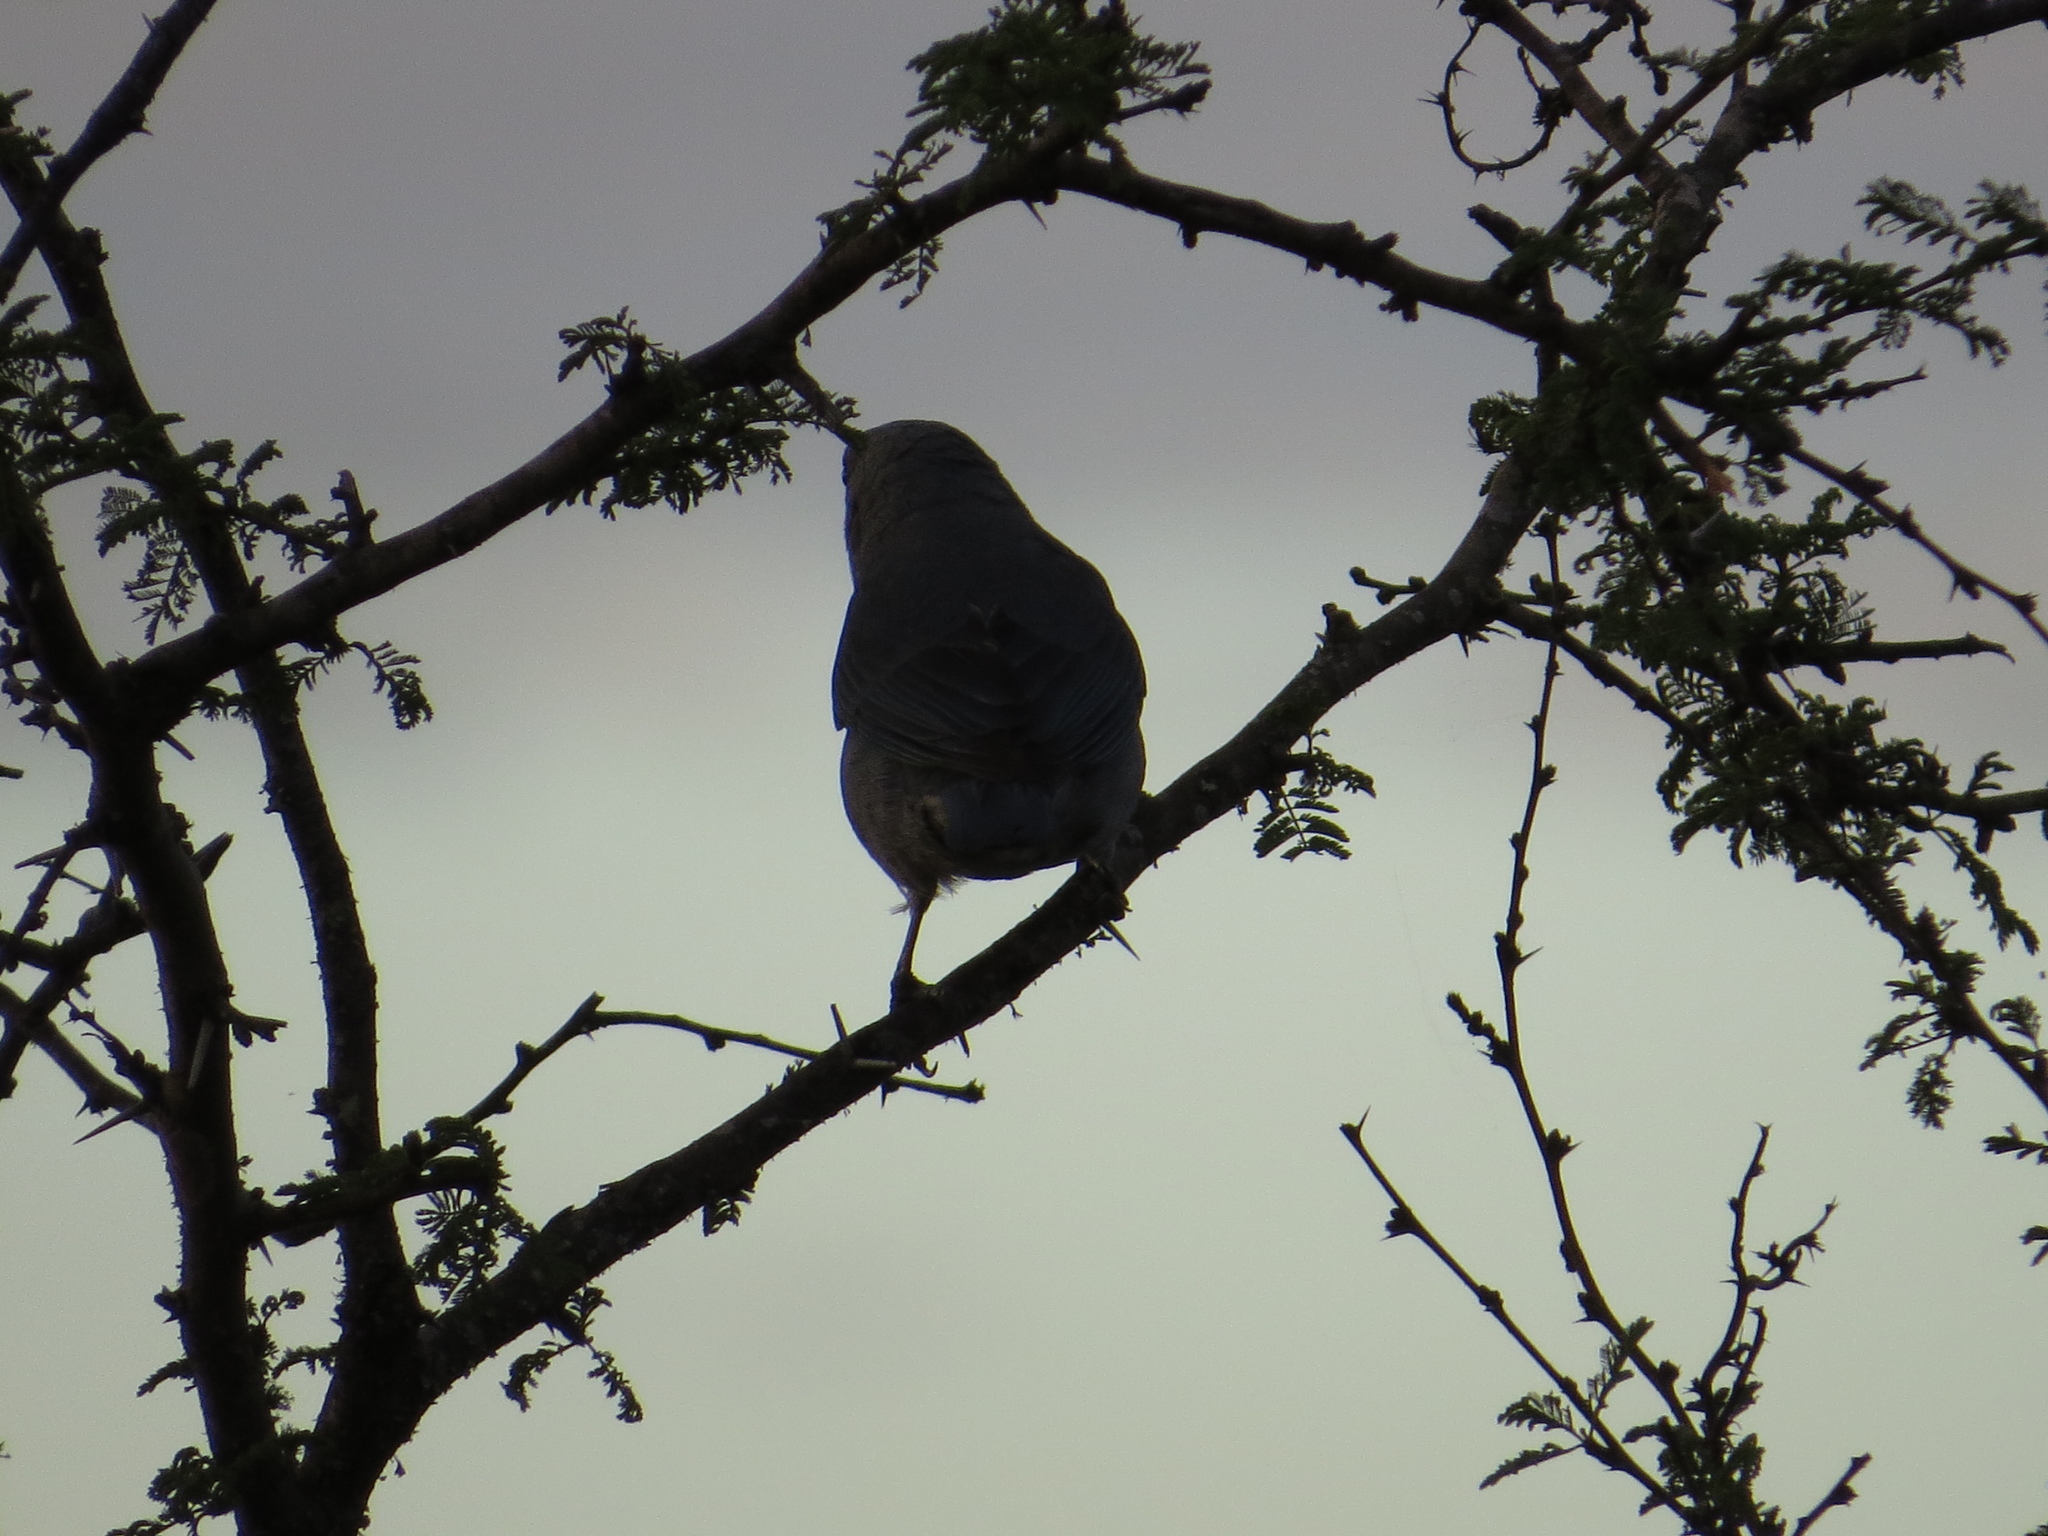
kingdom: Animalia
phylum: Chordata
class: Aves
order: Passeriformes
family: Thraupidae
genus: Thraupis
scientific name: Thraupis sayaca
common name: Sayaca tanager
